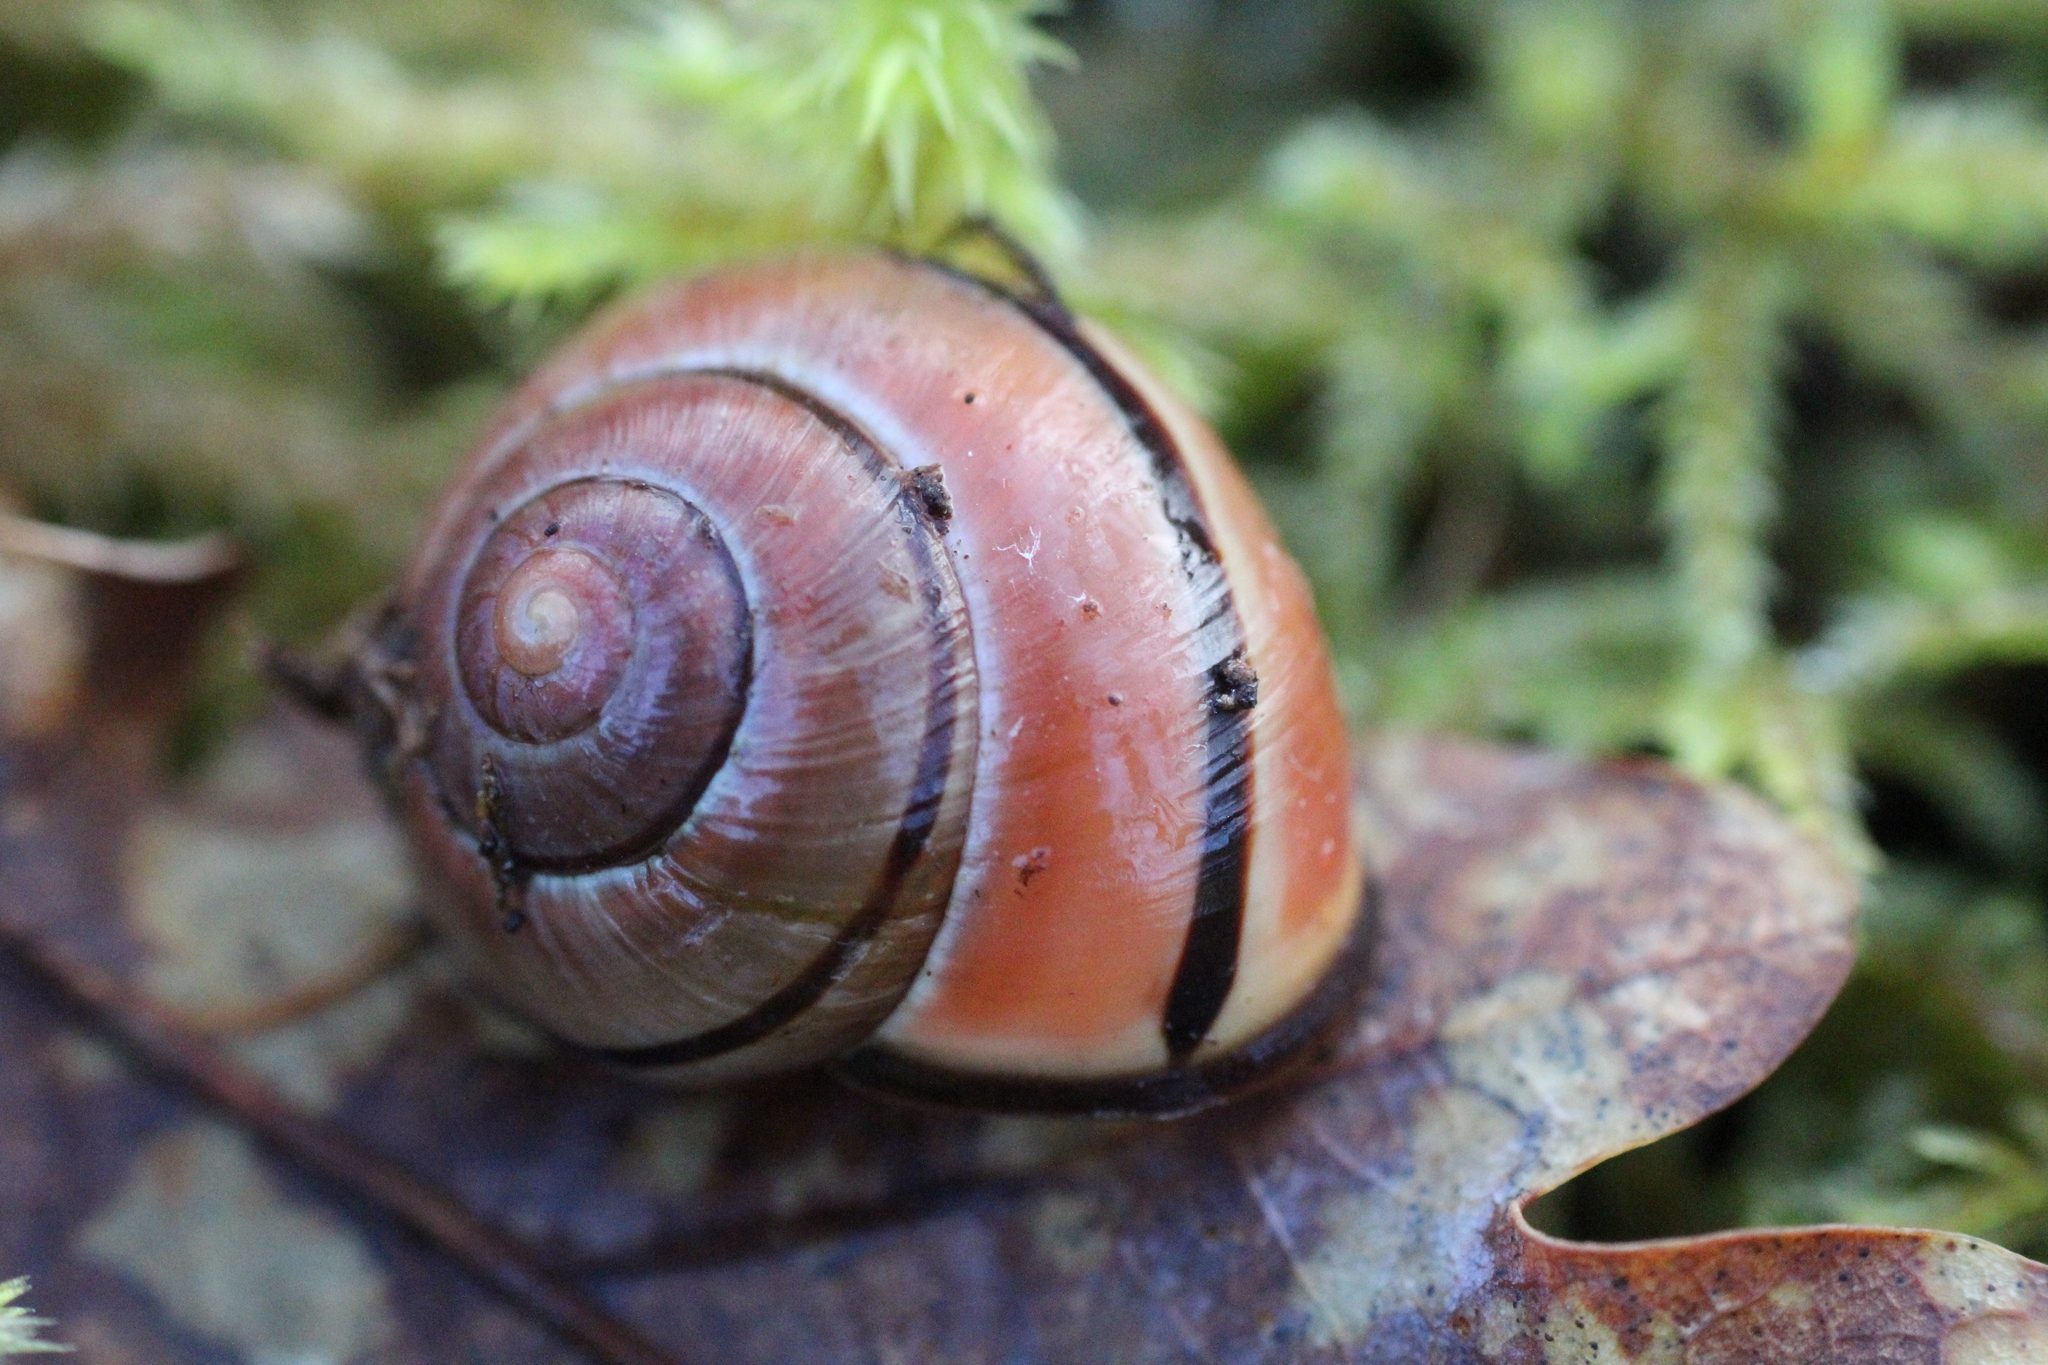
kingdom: Animalia
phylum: Mollusca
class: Gastropoda
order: Stylommatophora
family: Helicidae
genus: Cepaea
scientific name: Cepaea nemoralis
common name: Grovesnail
